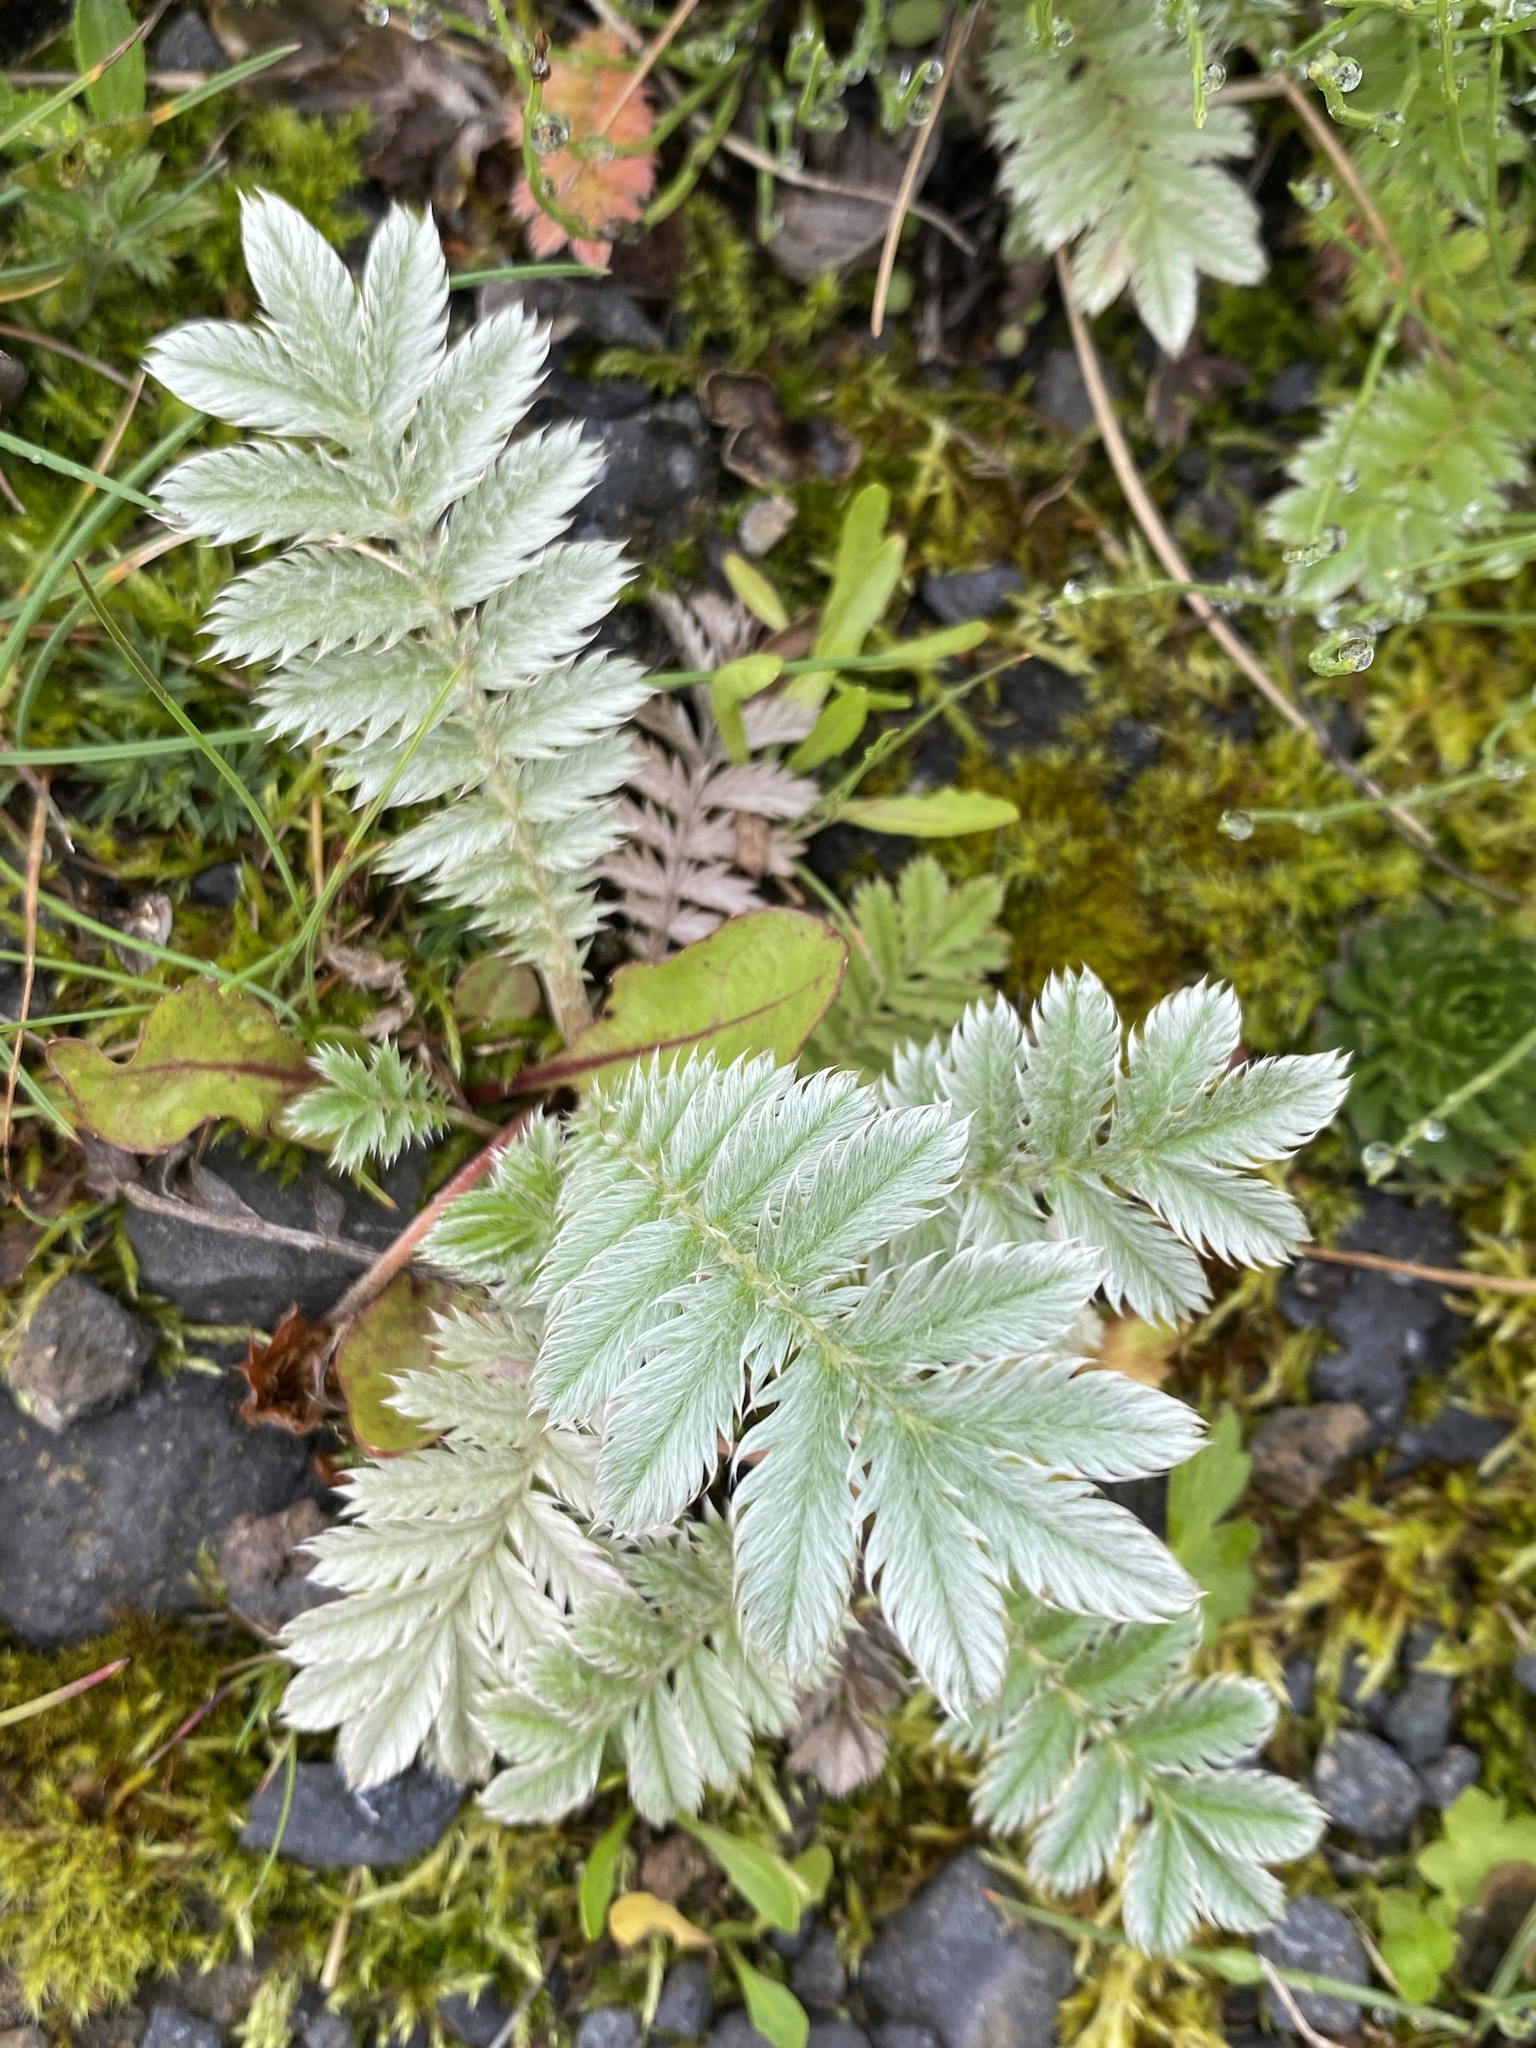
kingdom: Plantae
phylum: Tracheophyta
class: Magnoliopsida
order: Rosales
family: Rosaceae
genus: Argentina
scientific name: Argentina anserina
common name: Common silverweed
